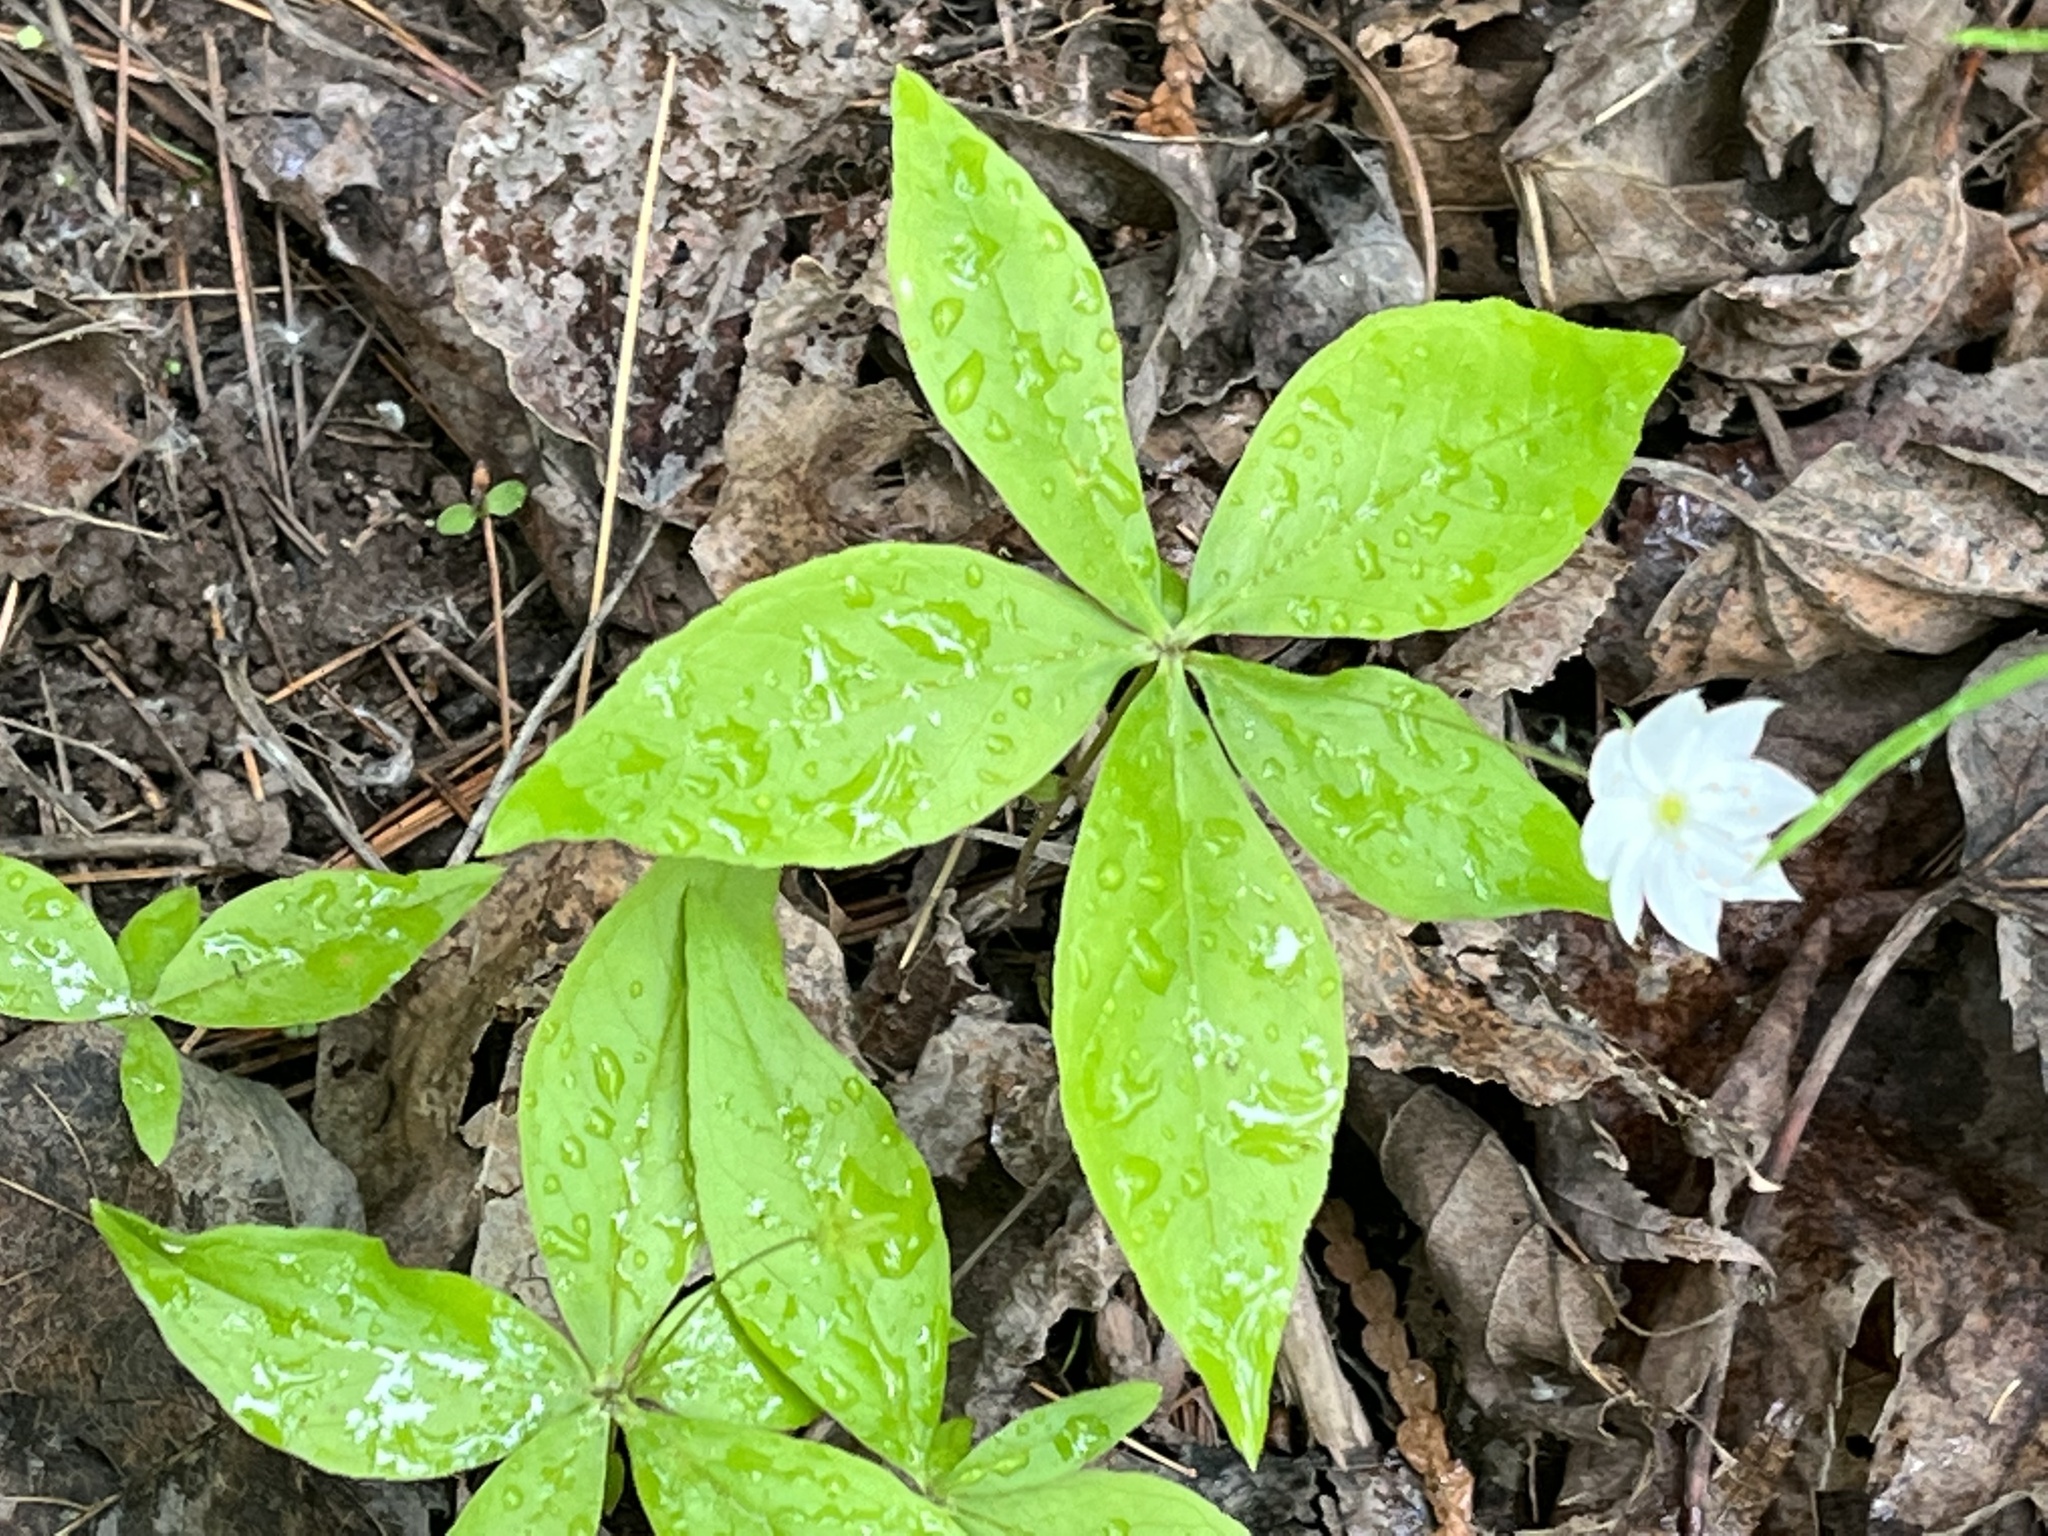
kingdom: Plantae
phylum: Tracheophyta
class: Magnoliopsida
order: Ericales
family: Primulaceae
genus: Lysimachia
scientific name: Lysimachia borealis
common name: American starflower
